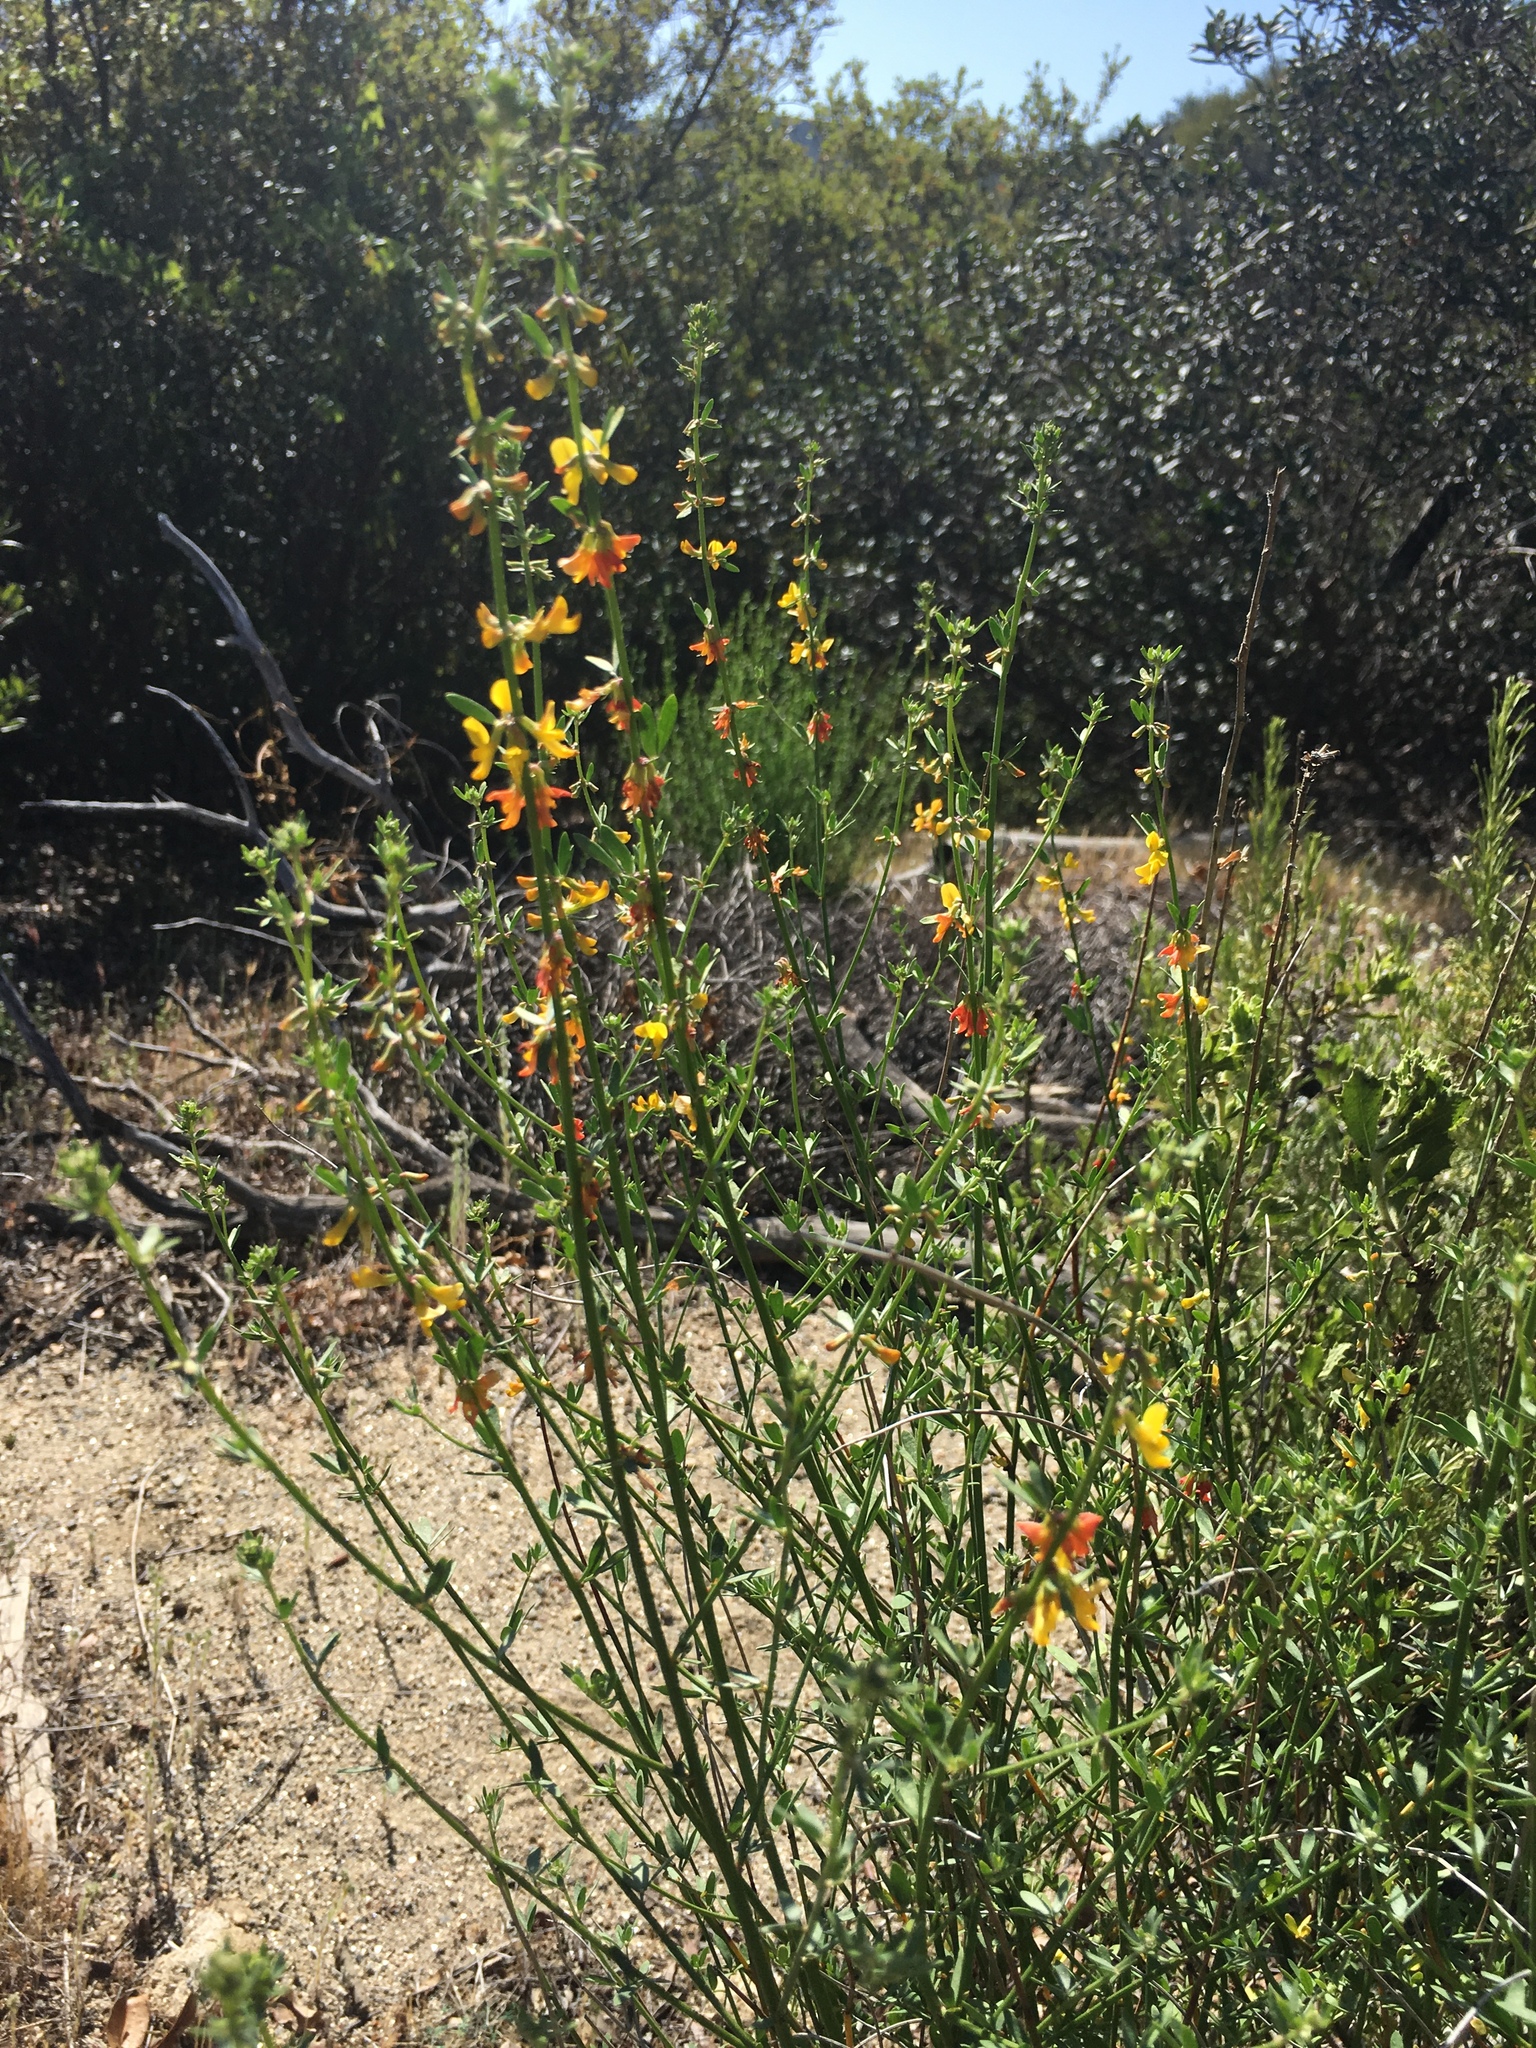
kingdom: Plantae
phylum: Tracheophyta
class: Magnoliopsida
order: Fabales
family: Fabaceae
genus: Acmispon
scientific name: Acmispon glaber
